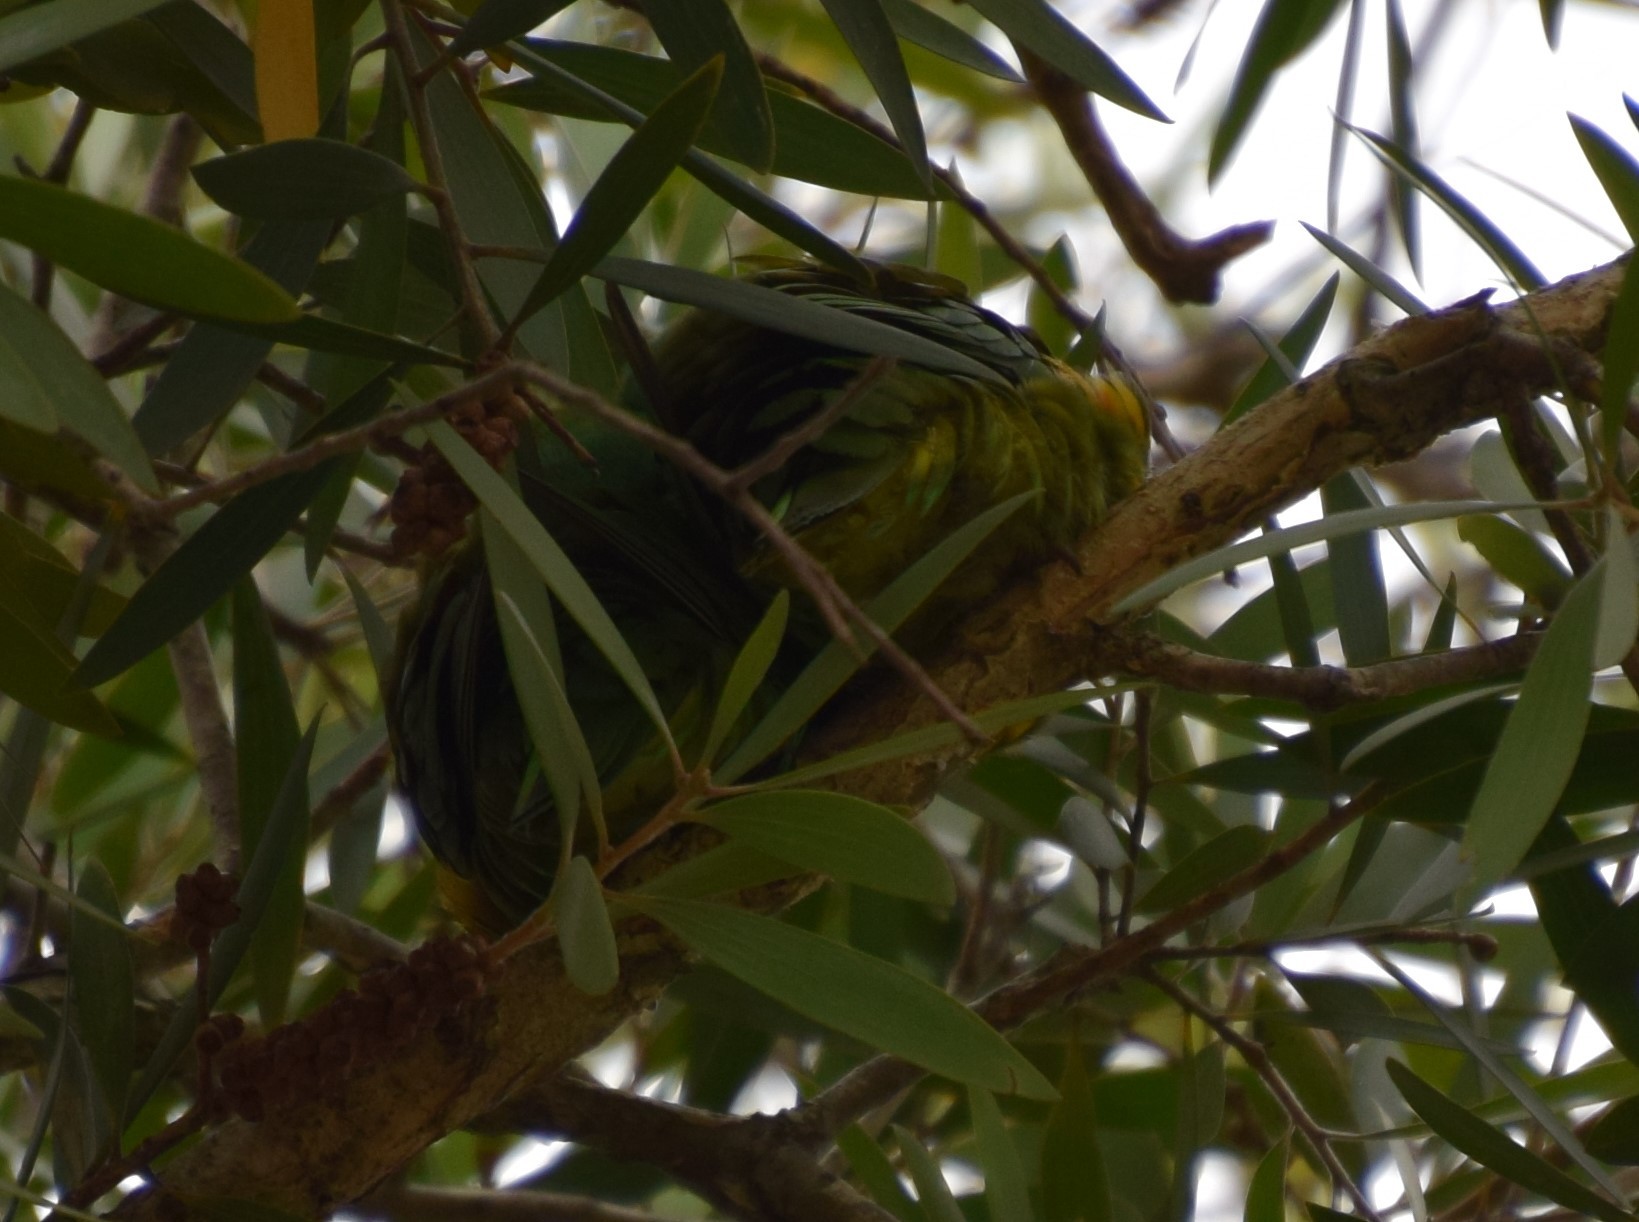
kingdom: Animalia
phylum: Chordata
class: Aves
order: Psittaciformes
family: Psittacidae
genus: Trichoglossus
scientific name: Trichoglossus chlorolepidotus
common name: Scaly-breasted lorikeet
